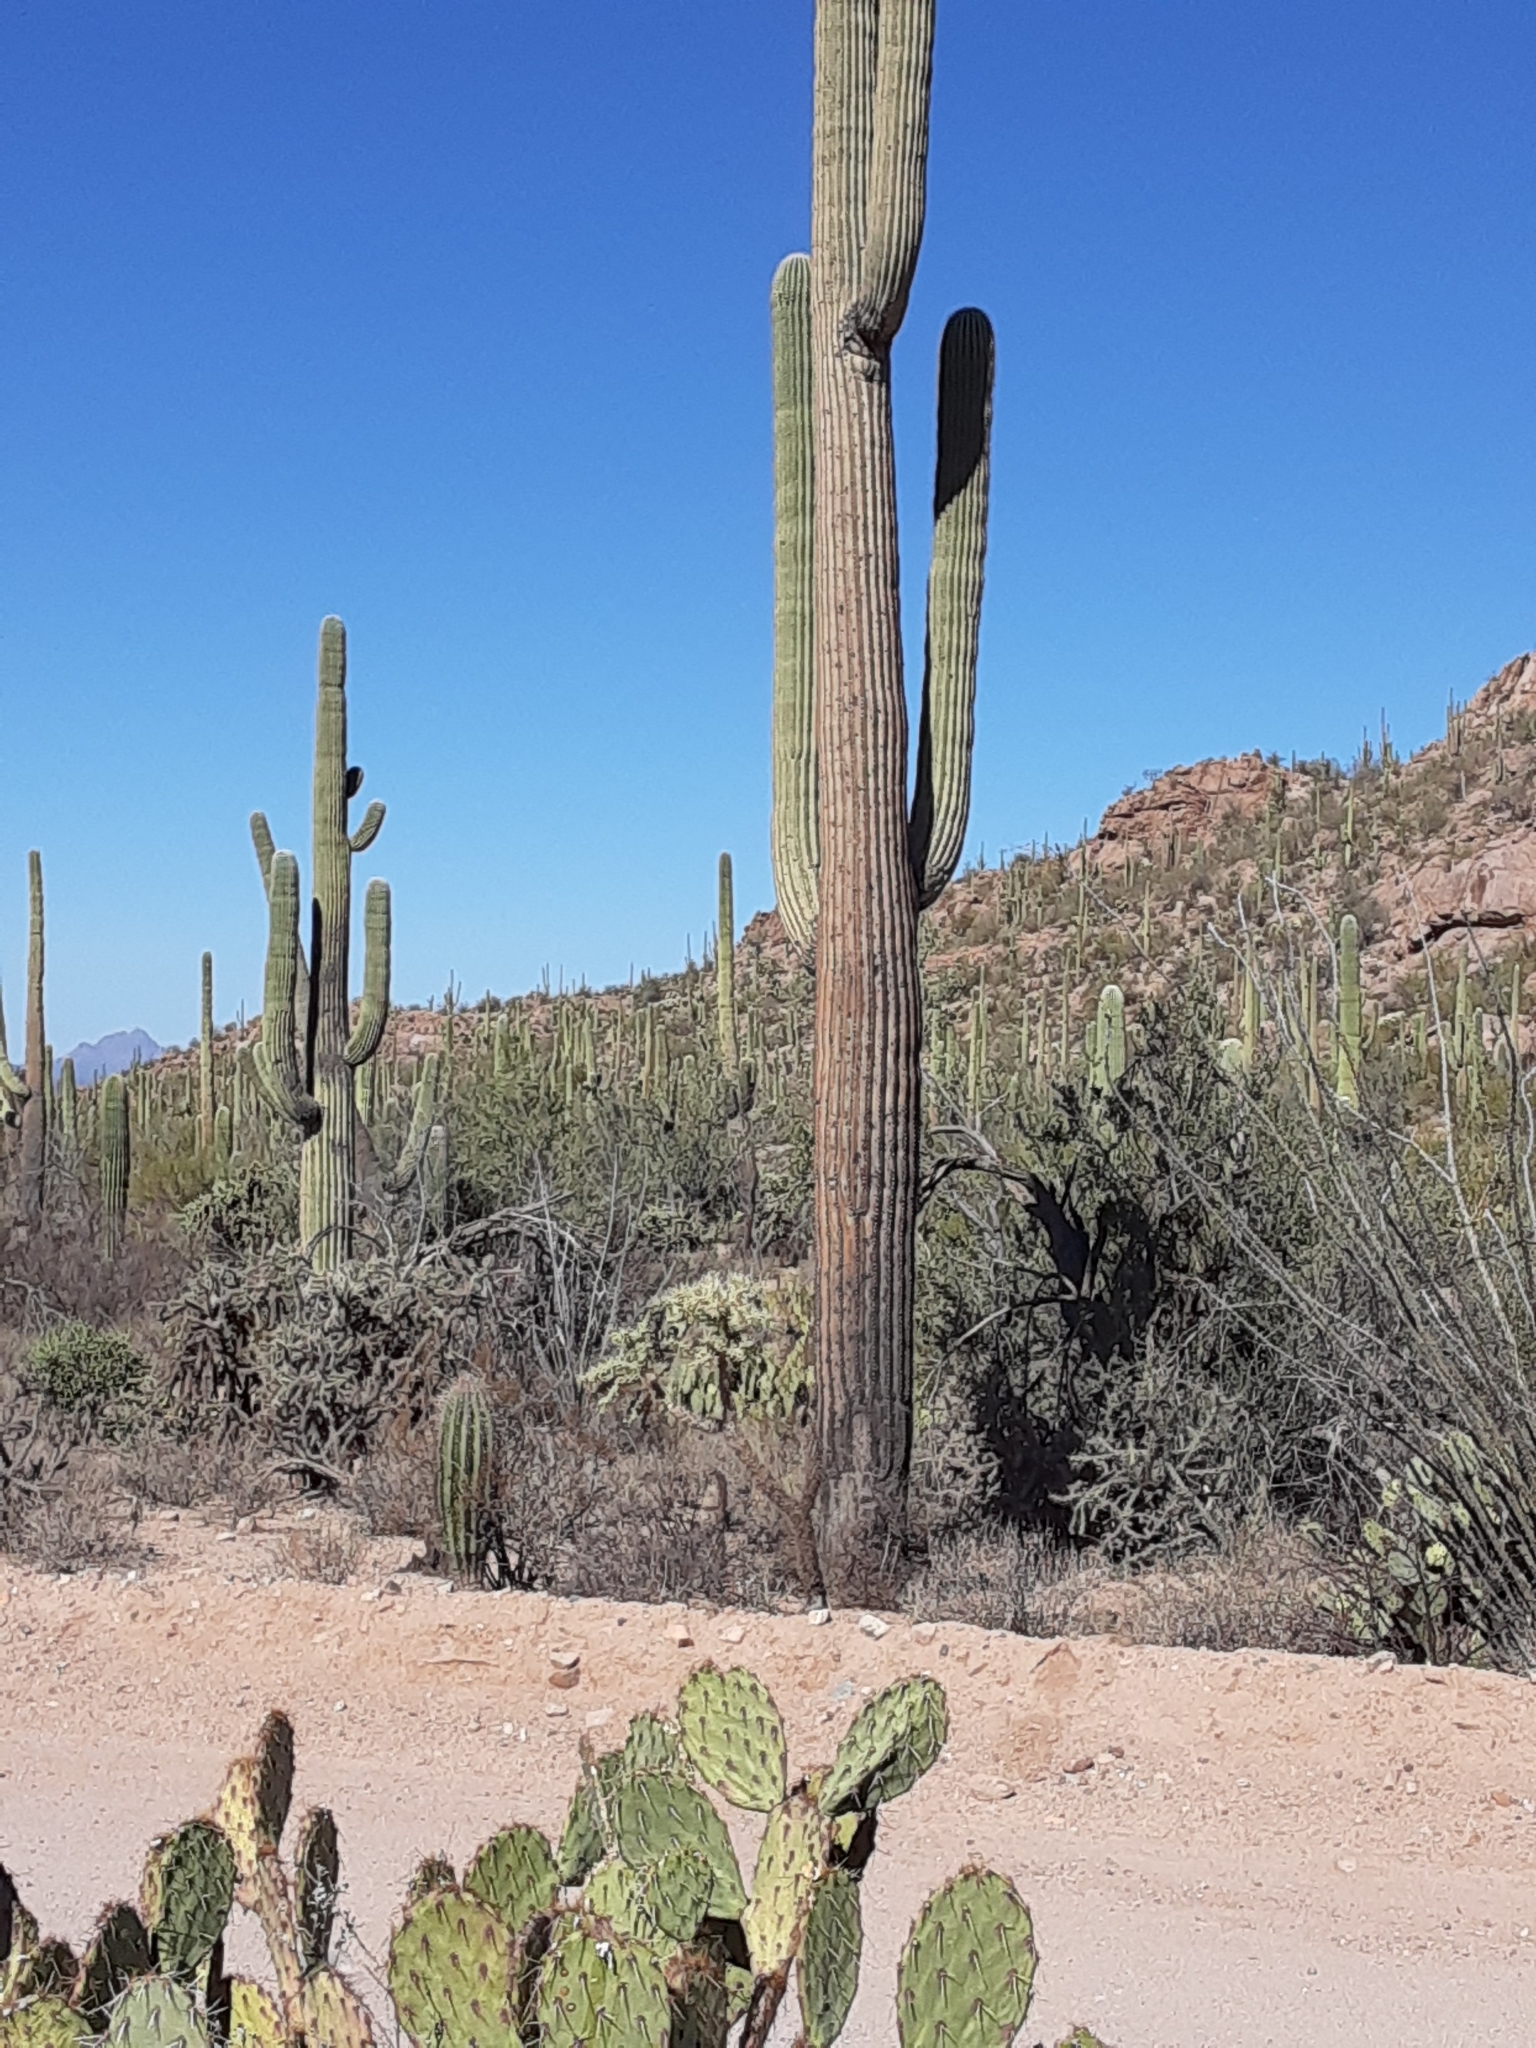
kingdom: Plantae
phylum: Tracheophyta
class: Magnoliopsida
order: Caryophyllales
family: Cactaceae
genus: Carnegiea
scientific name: Carnegiea gigantea
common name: Saguaro
